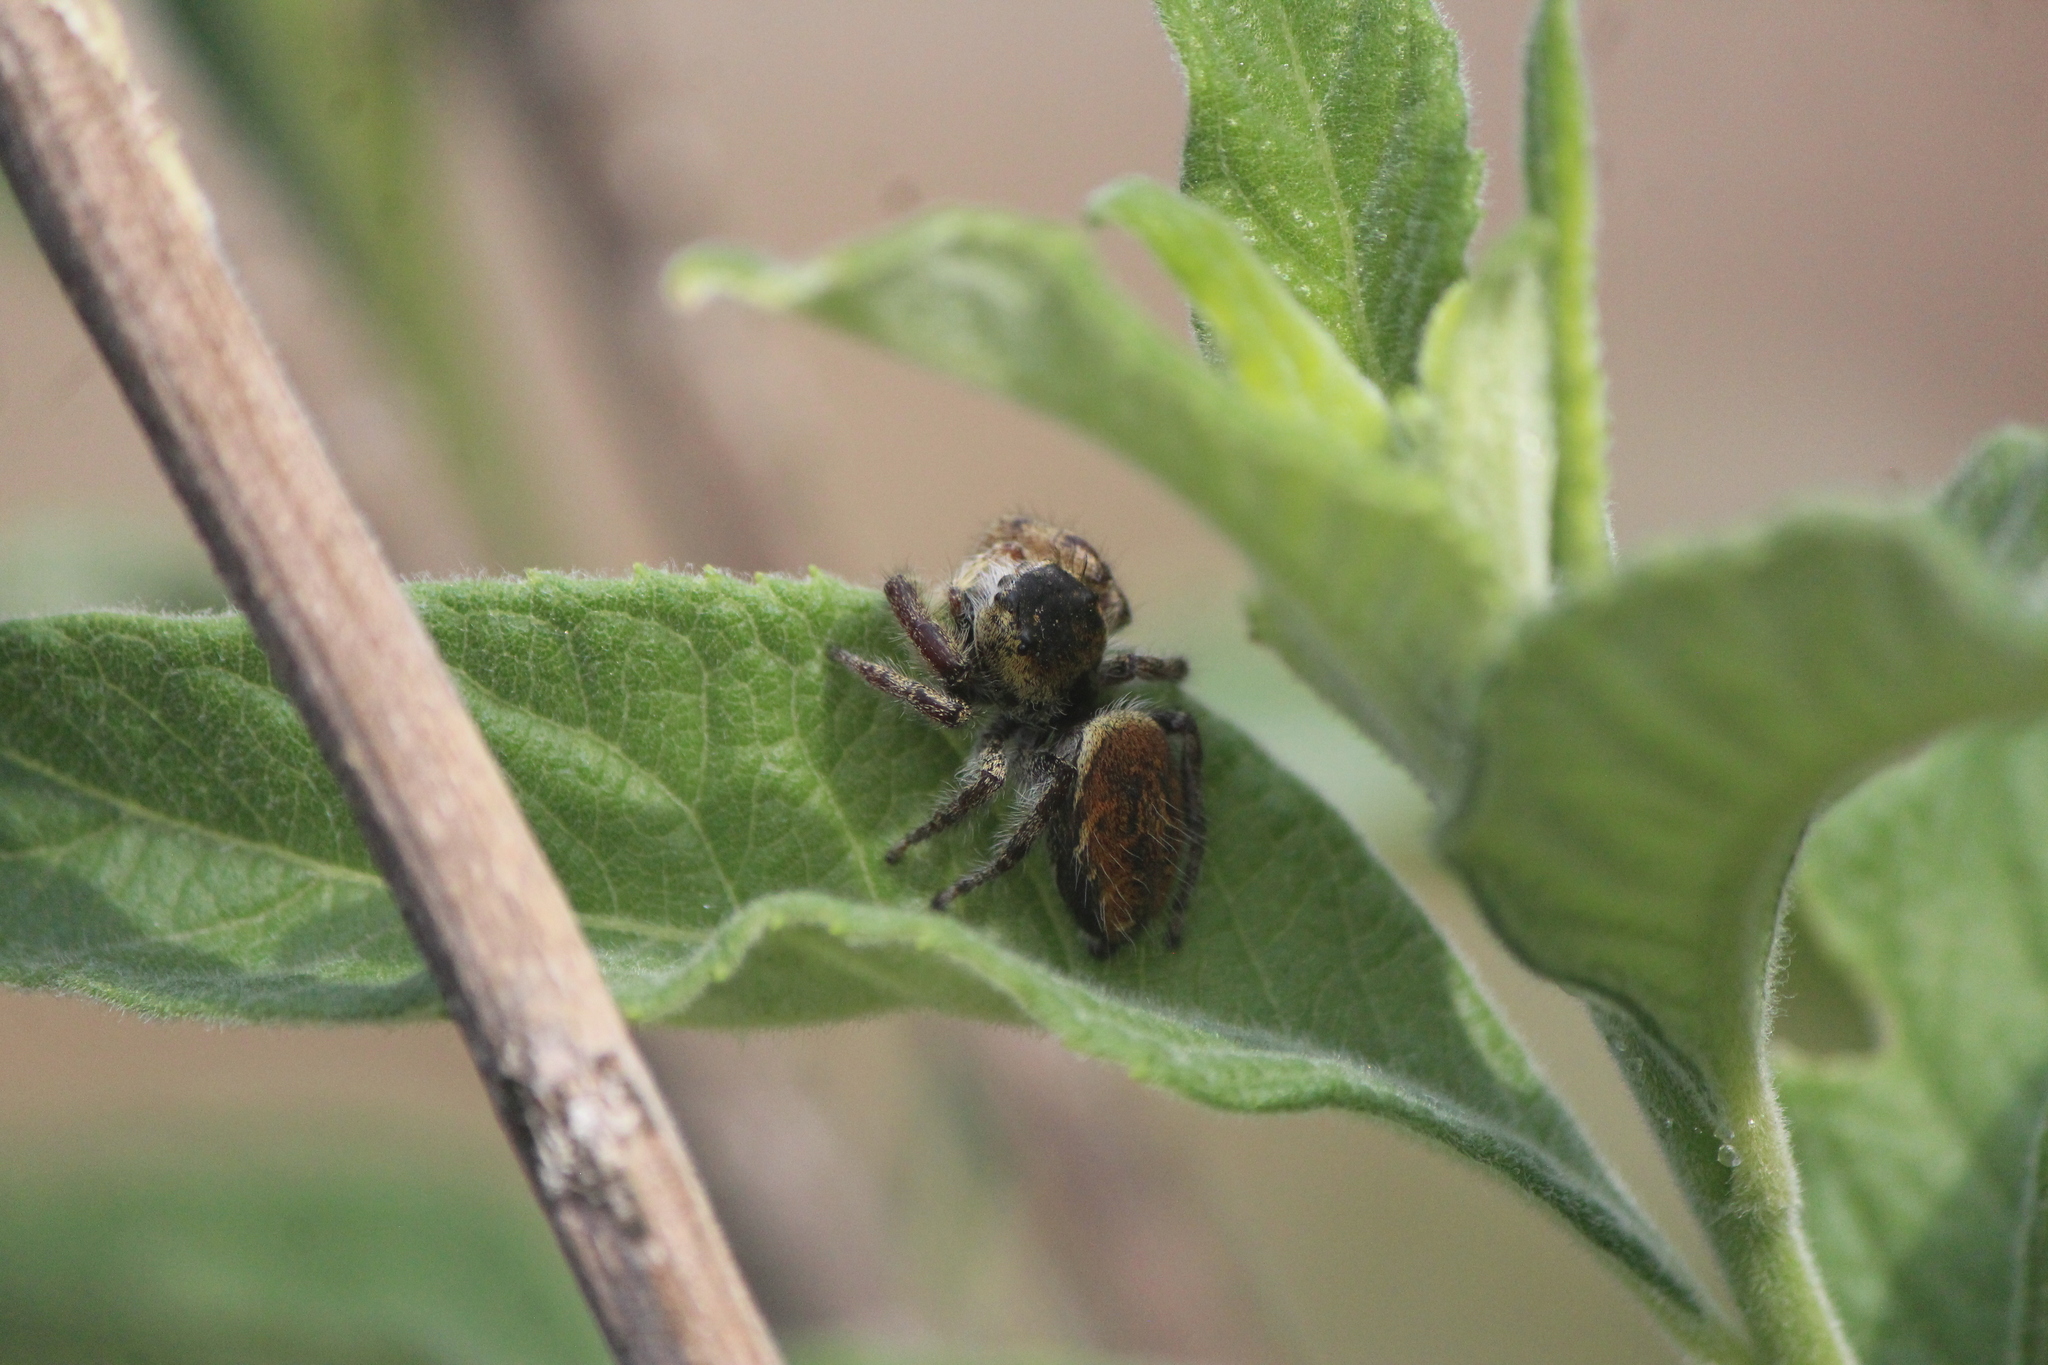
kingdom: Animalia
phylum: Arthropoda
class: Arachnida
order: Araneae
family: Salticidae
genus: Phidippus
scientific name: Phidippus arizonensis
